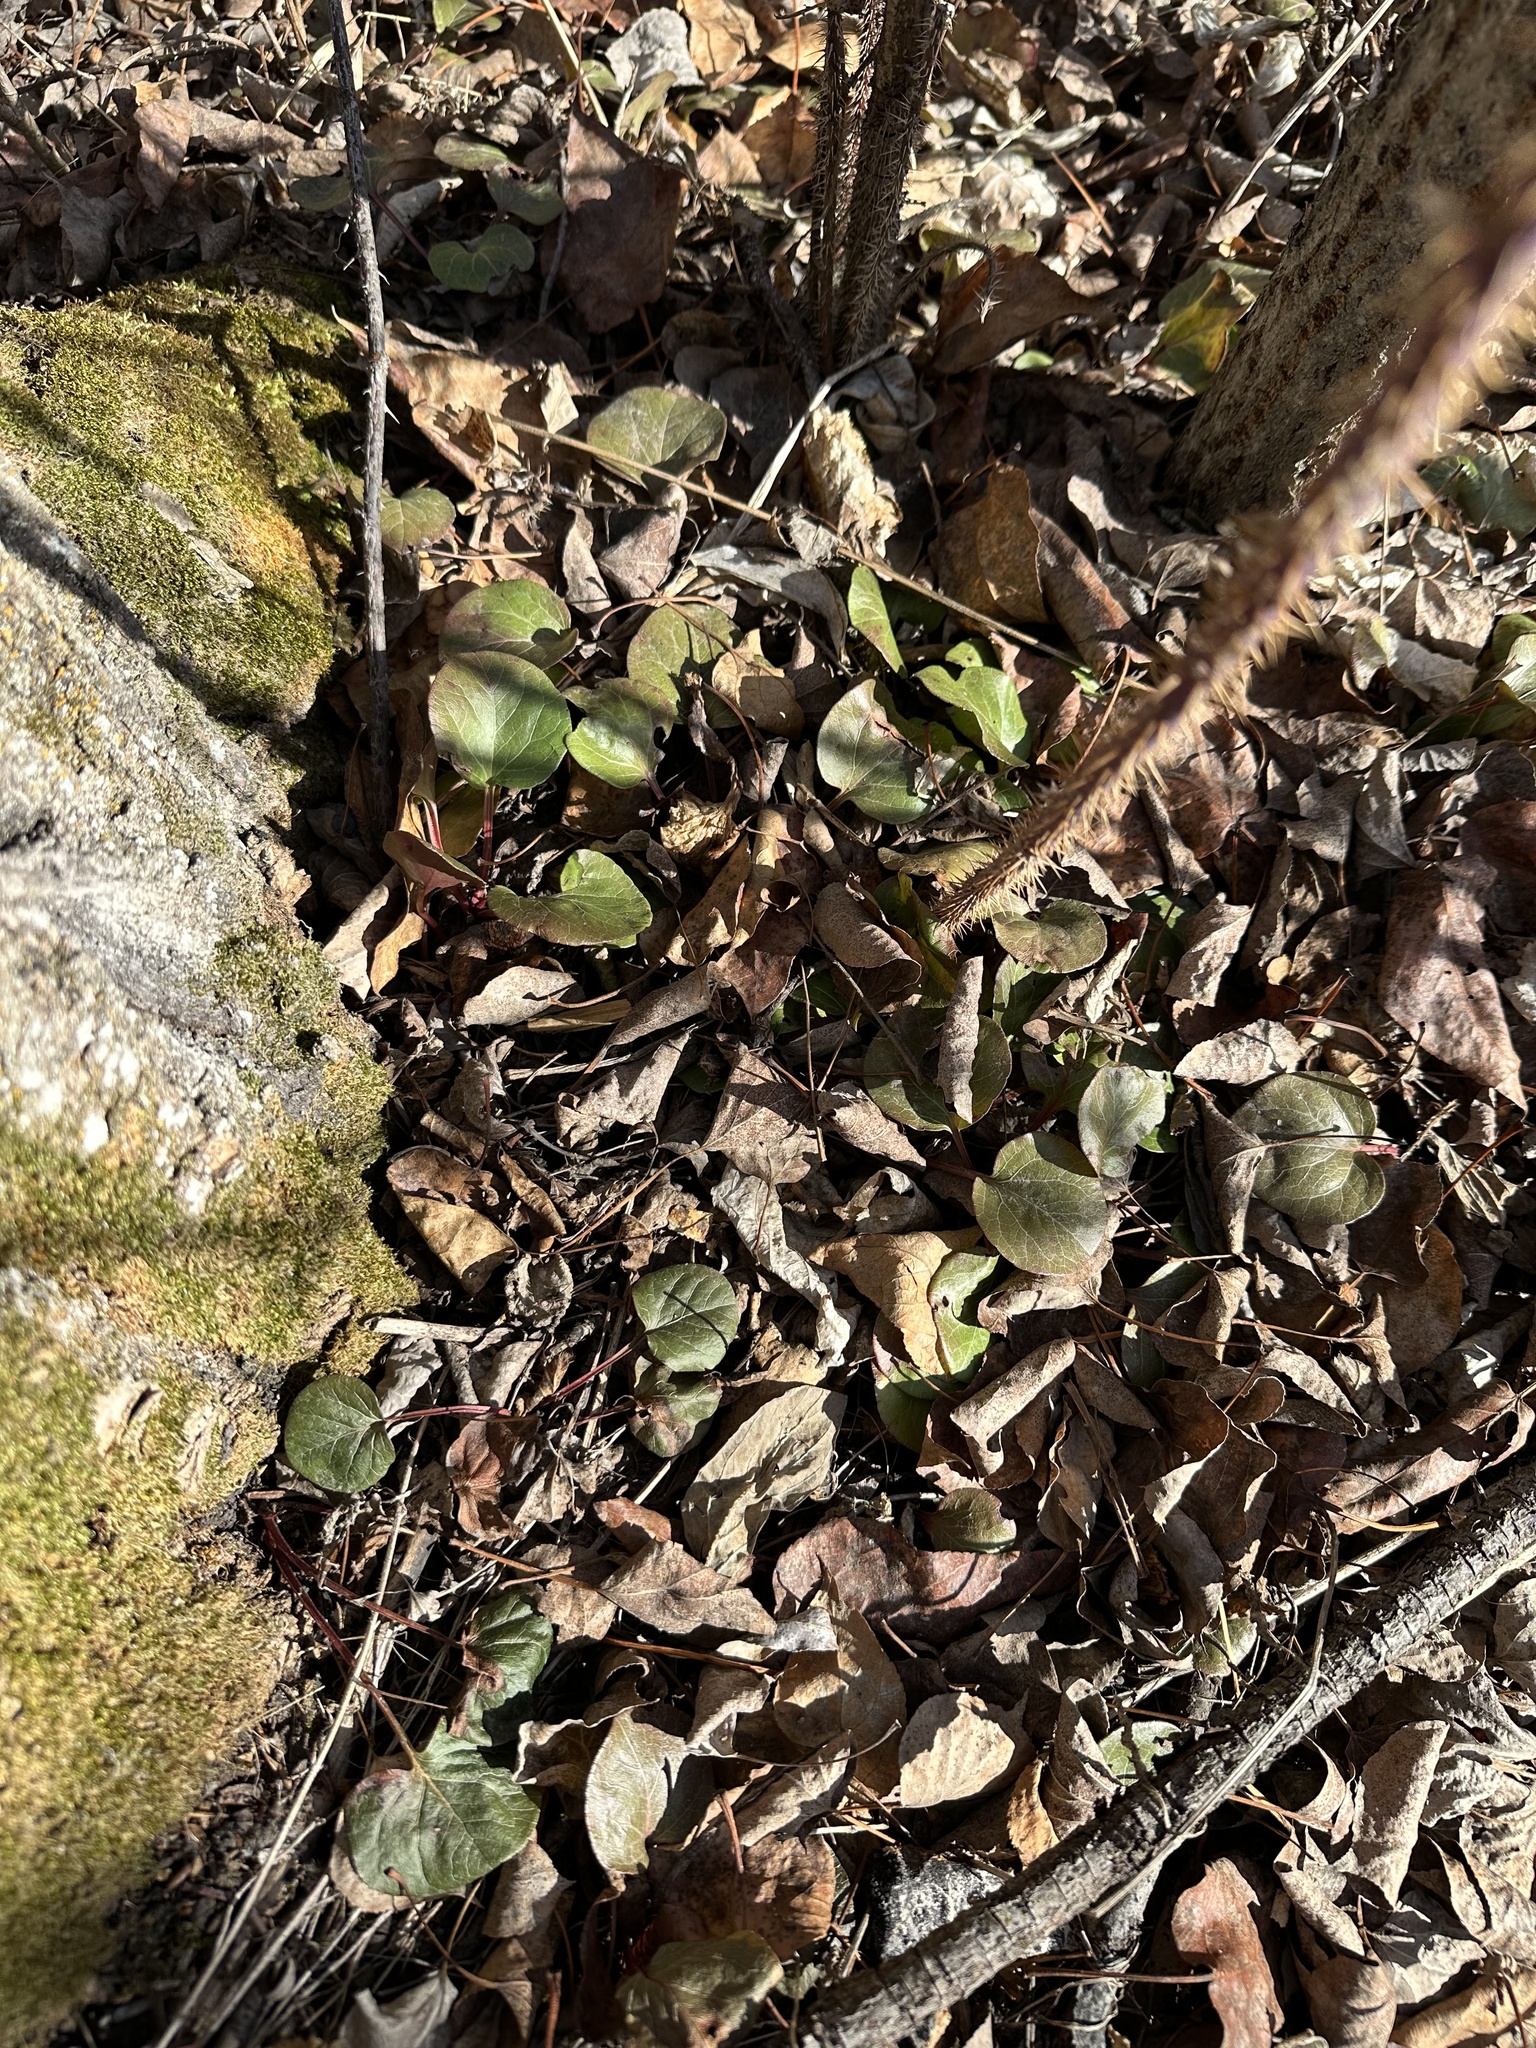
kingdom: Plantae
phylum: Tracheophyta
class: Magnoliopsida
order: Ericales
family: Ericaceae
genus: Pyrola
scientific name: Pyrola asarifolia
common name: Bog wintergreen
